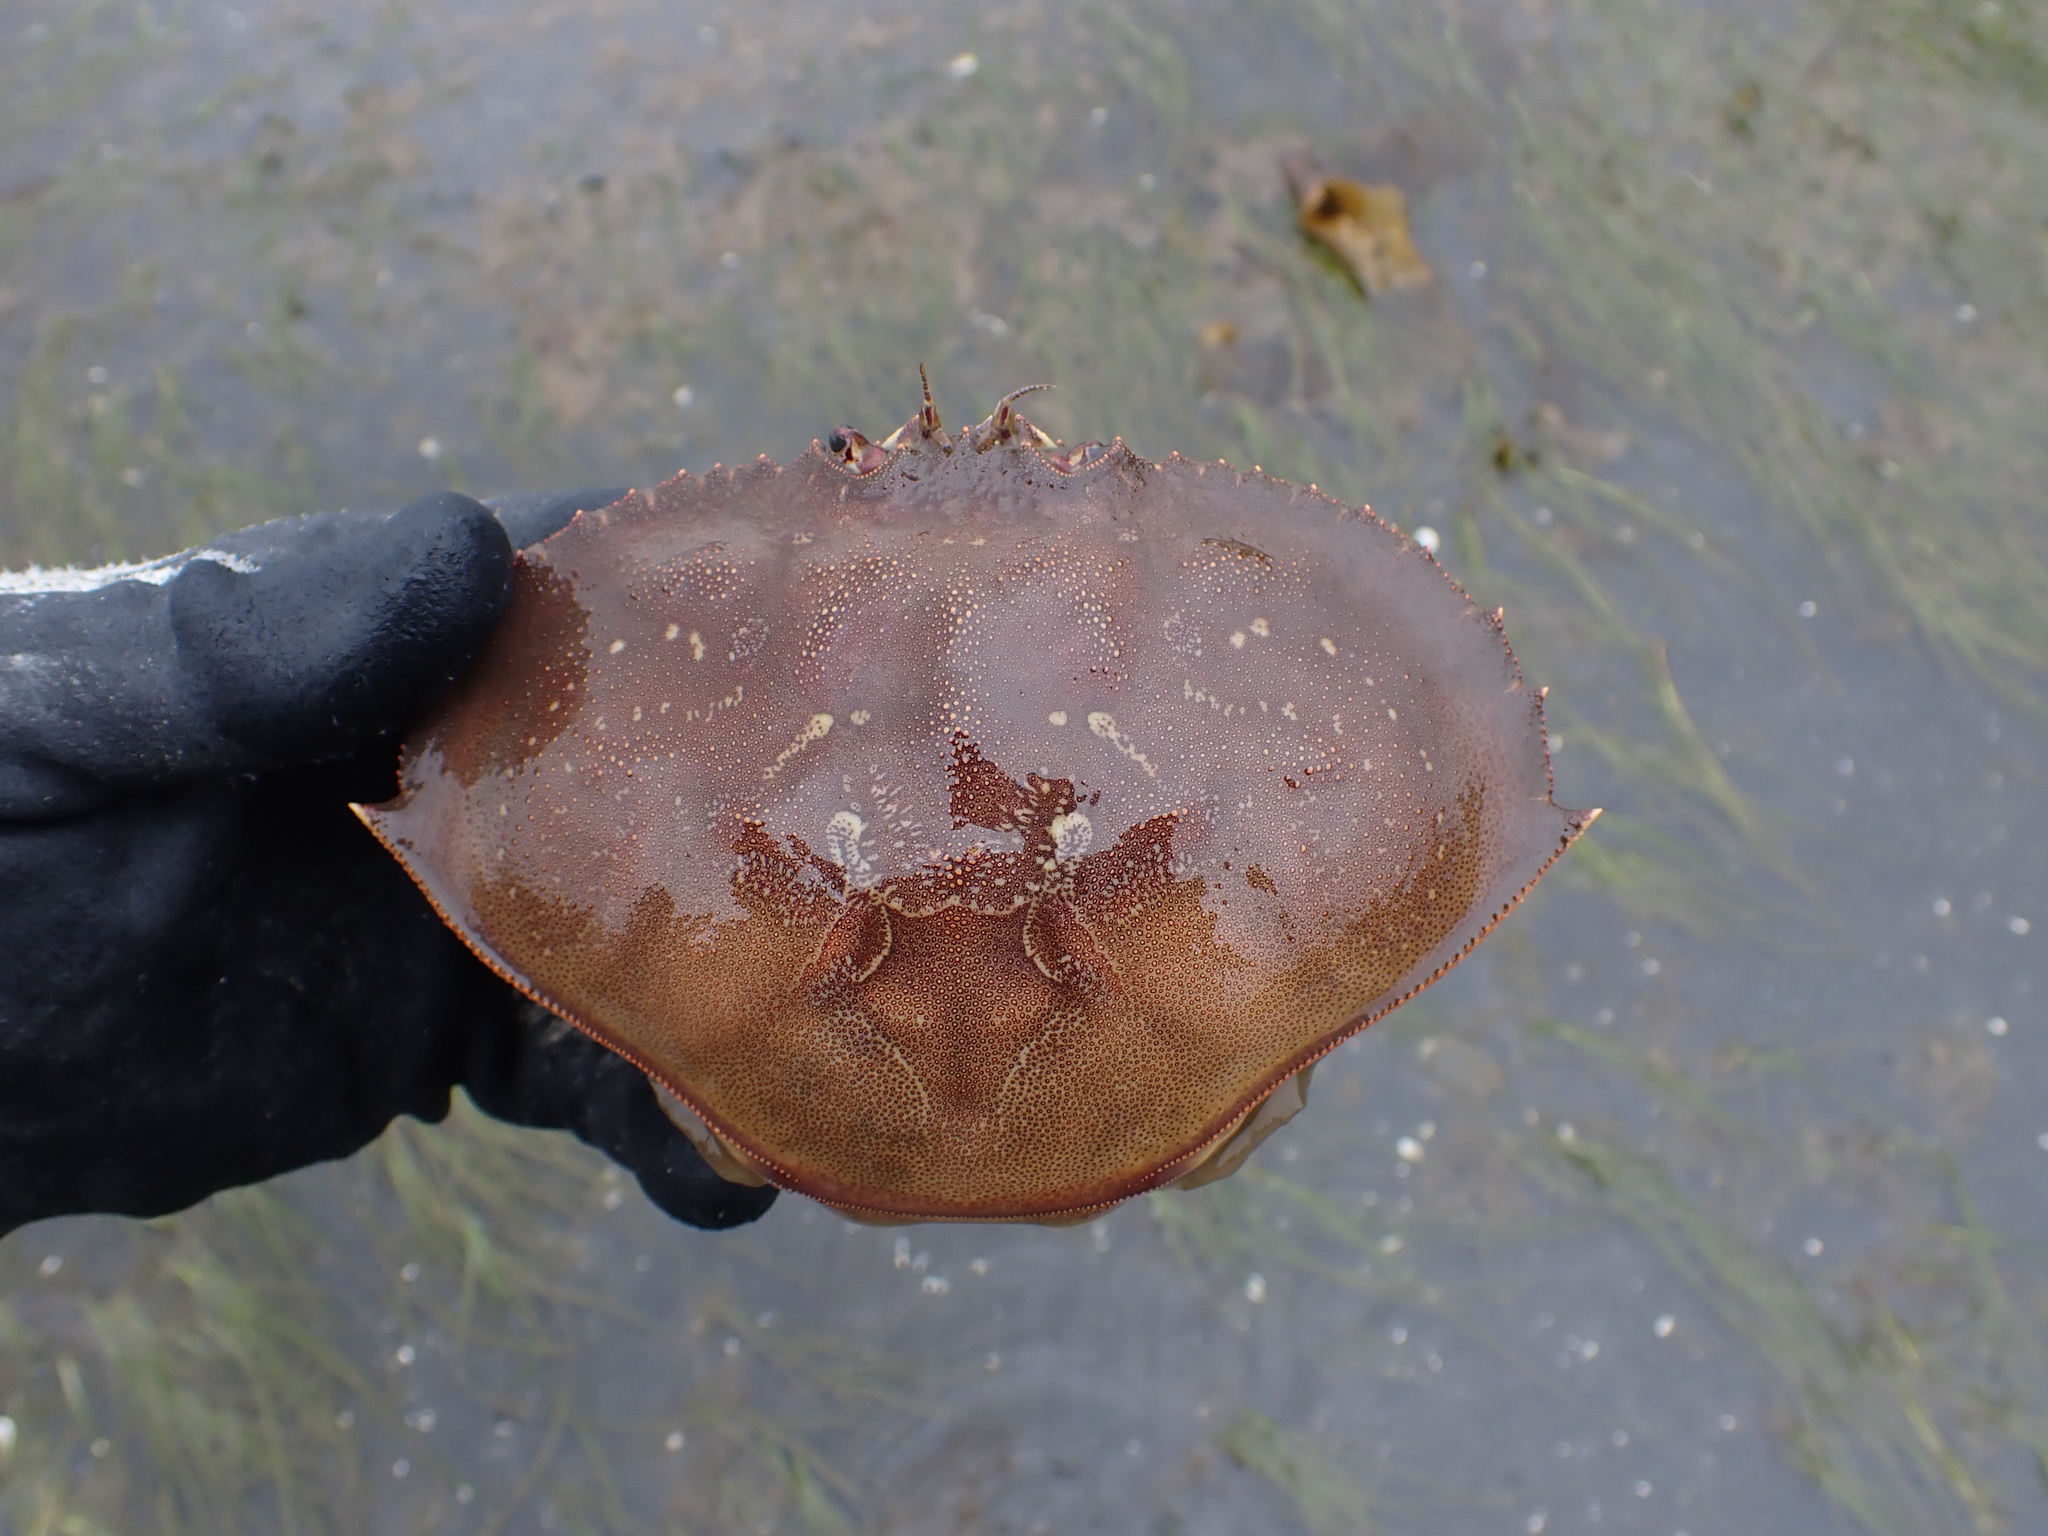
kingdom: Animalia
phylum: Arthropoda
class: Malacostraca
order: Decapoda
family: Cancridae
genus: Metacarcinus
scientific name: Metacarcinus magister
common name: Californian crab
